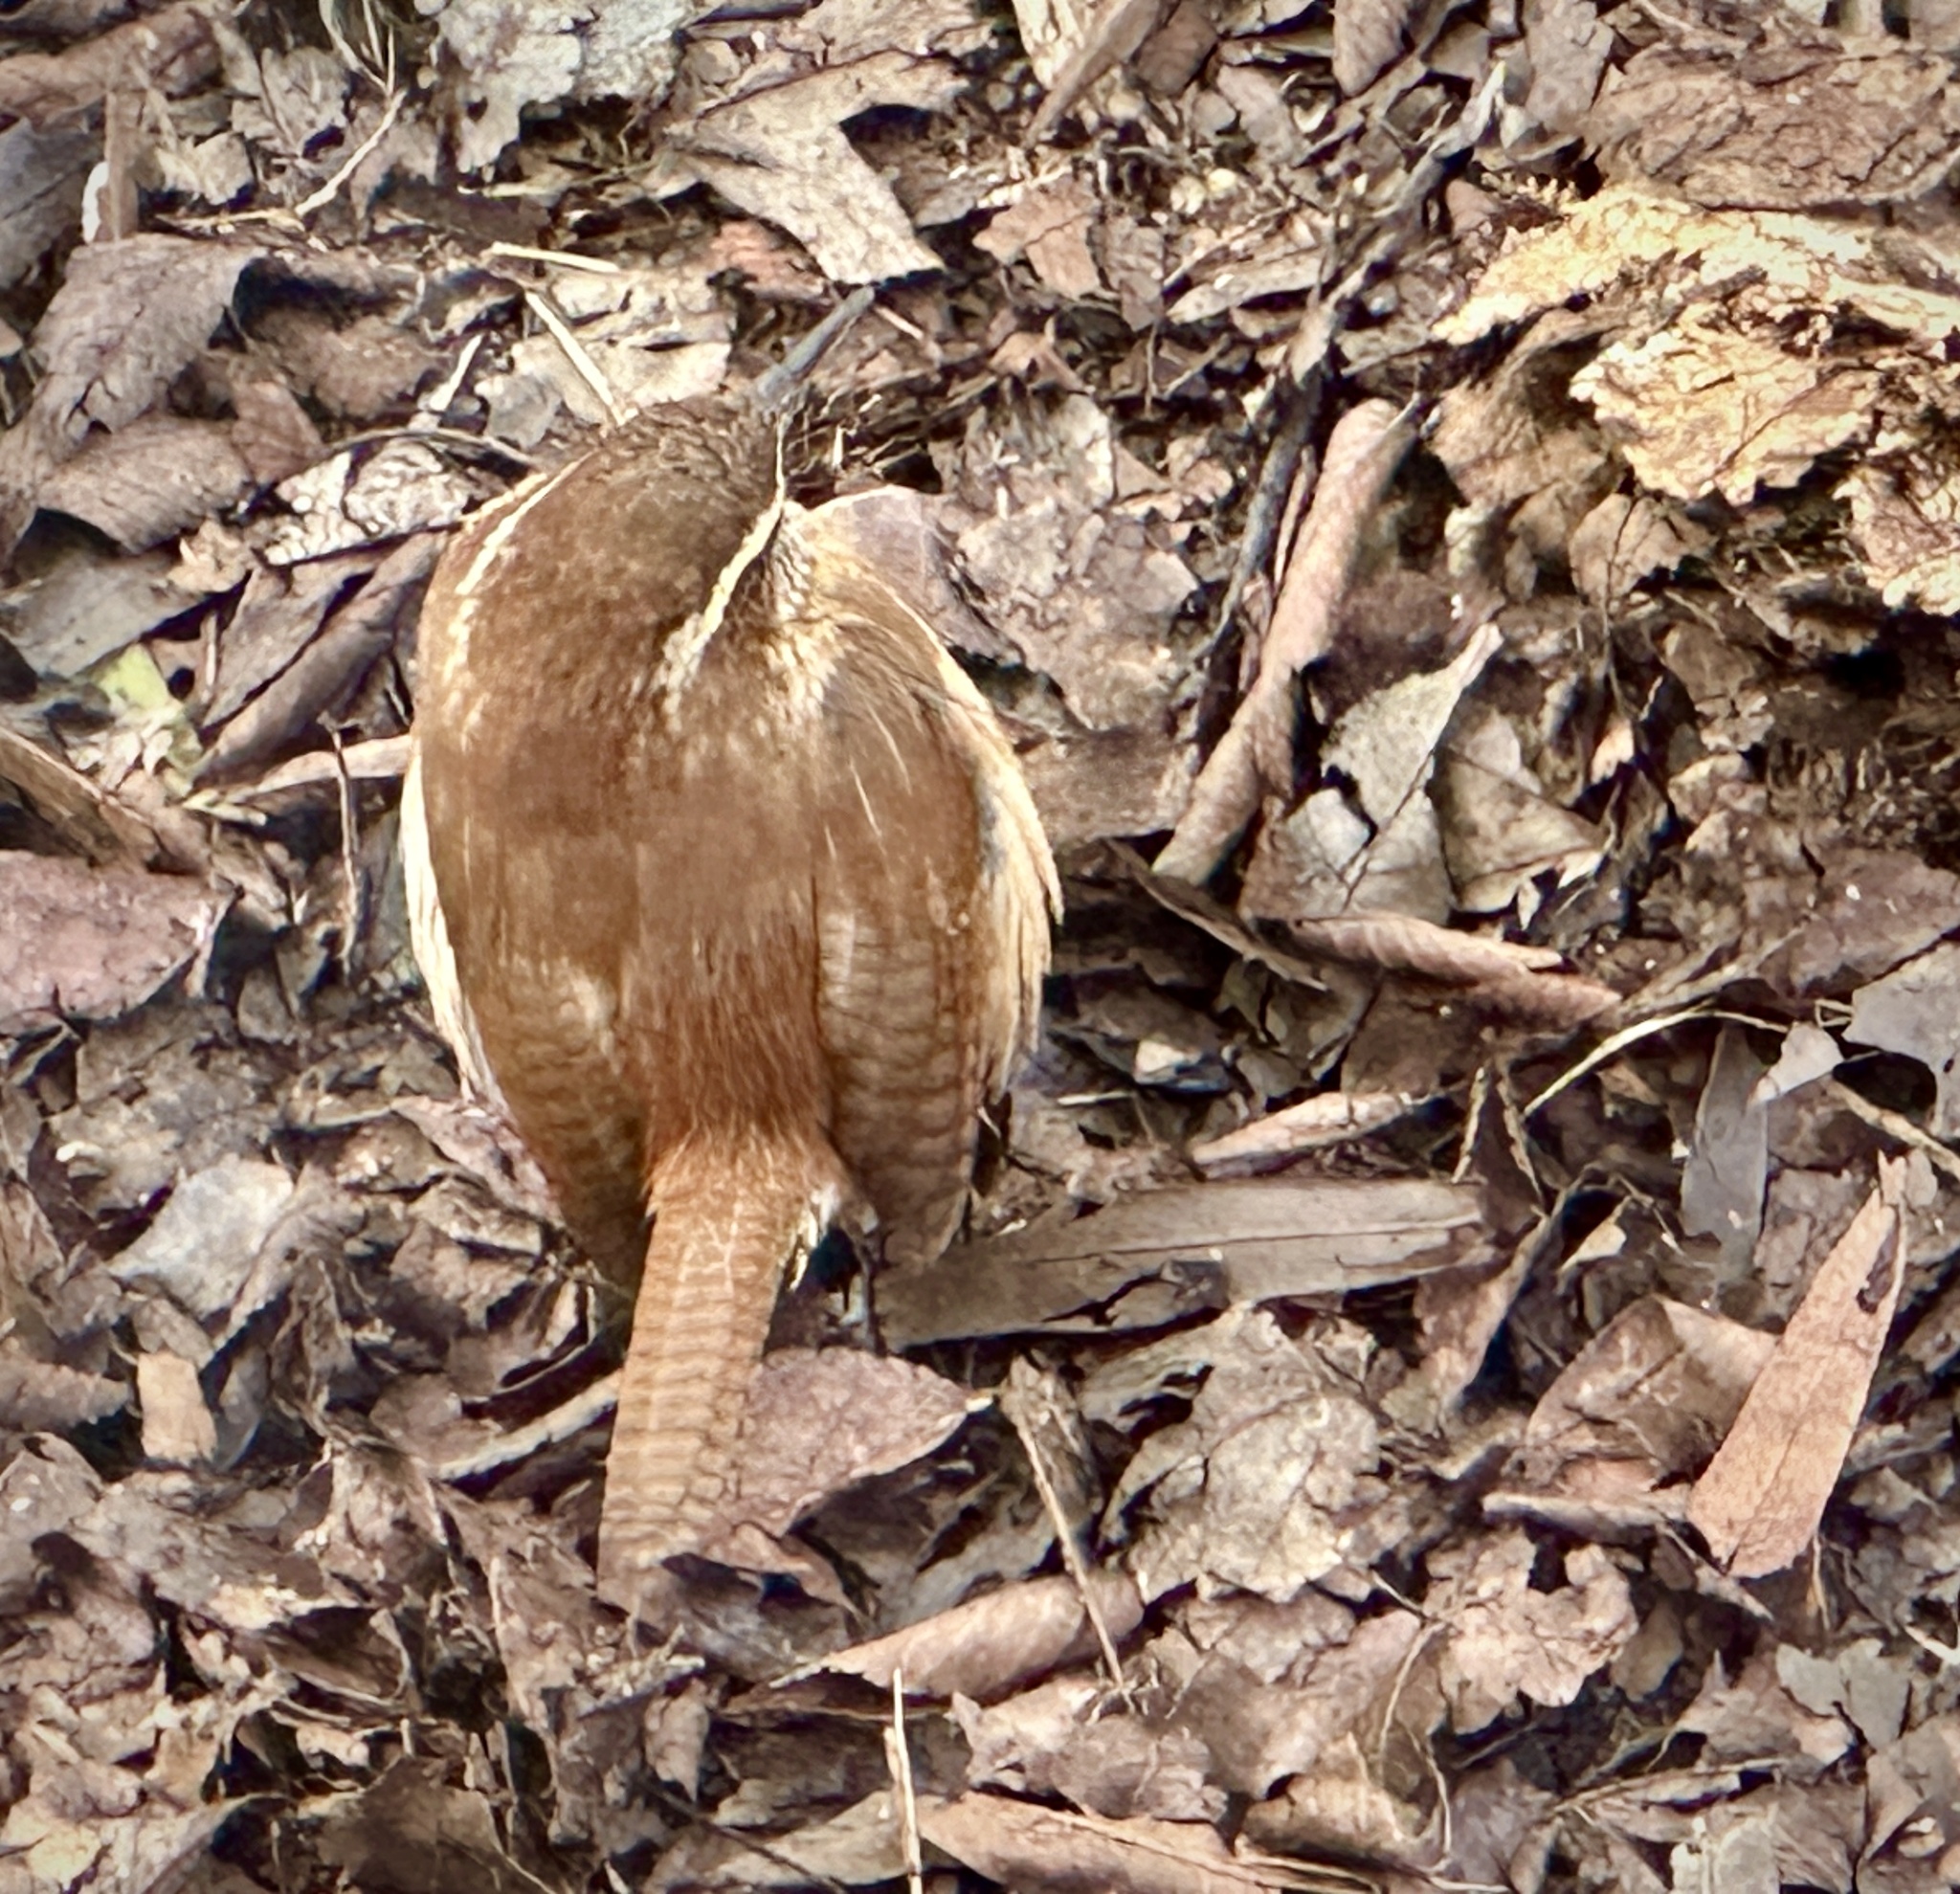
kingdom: Animalia
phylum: Chordata
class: Aves
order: Passeriformes
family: Troglodytidae
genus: Thryothorus
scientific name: Thryothorus ludovicianus
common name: Carolina wren
